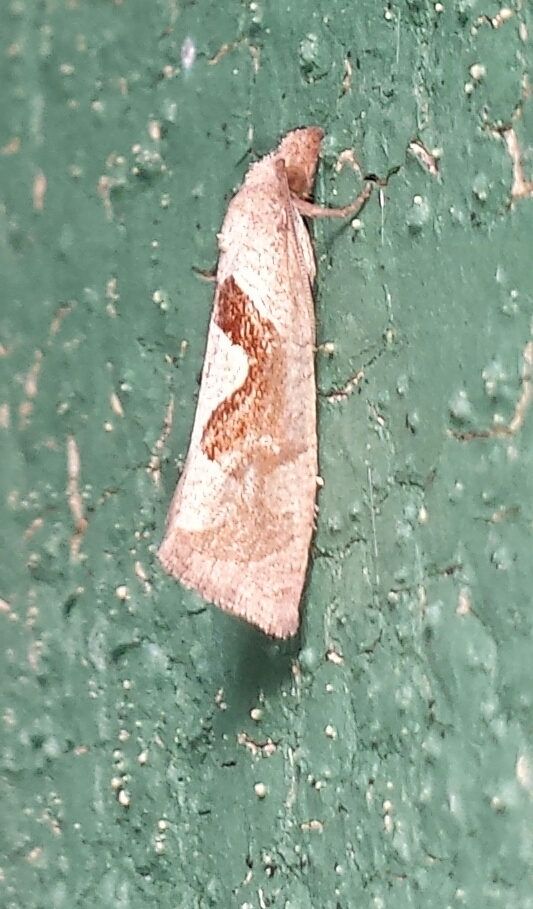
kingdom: Animalia
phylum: Arthropoda
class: Insecta
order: Lepidoptera
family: Tortricidae
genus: Pelochrista
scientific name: Pelochrista similiana
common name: Similar eucosma
